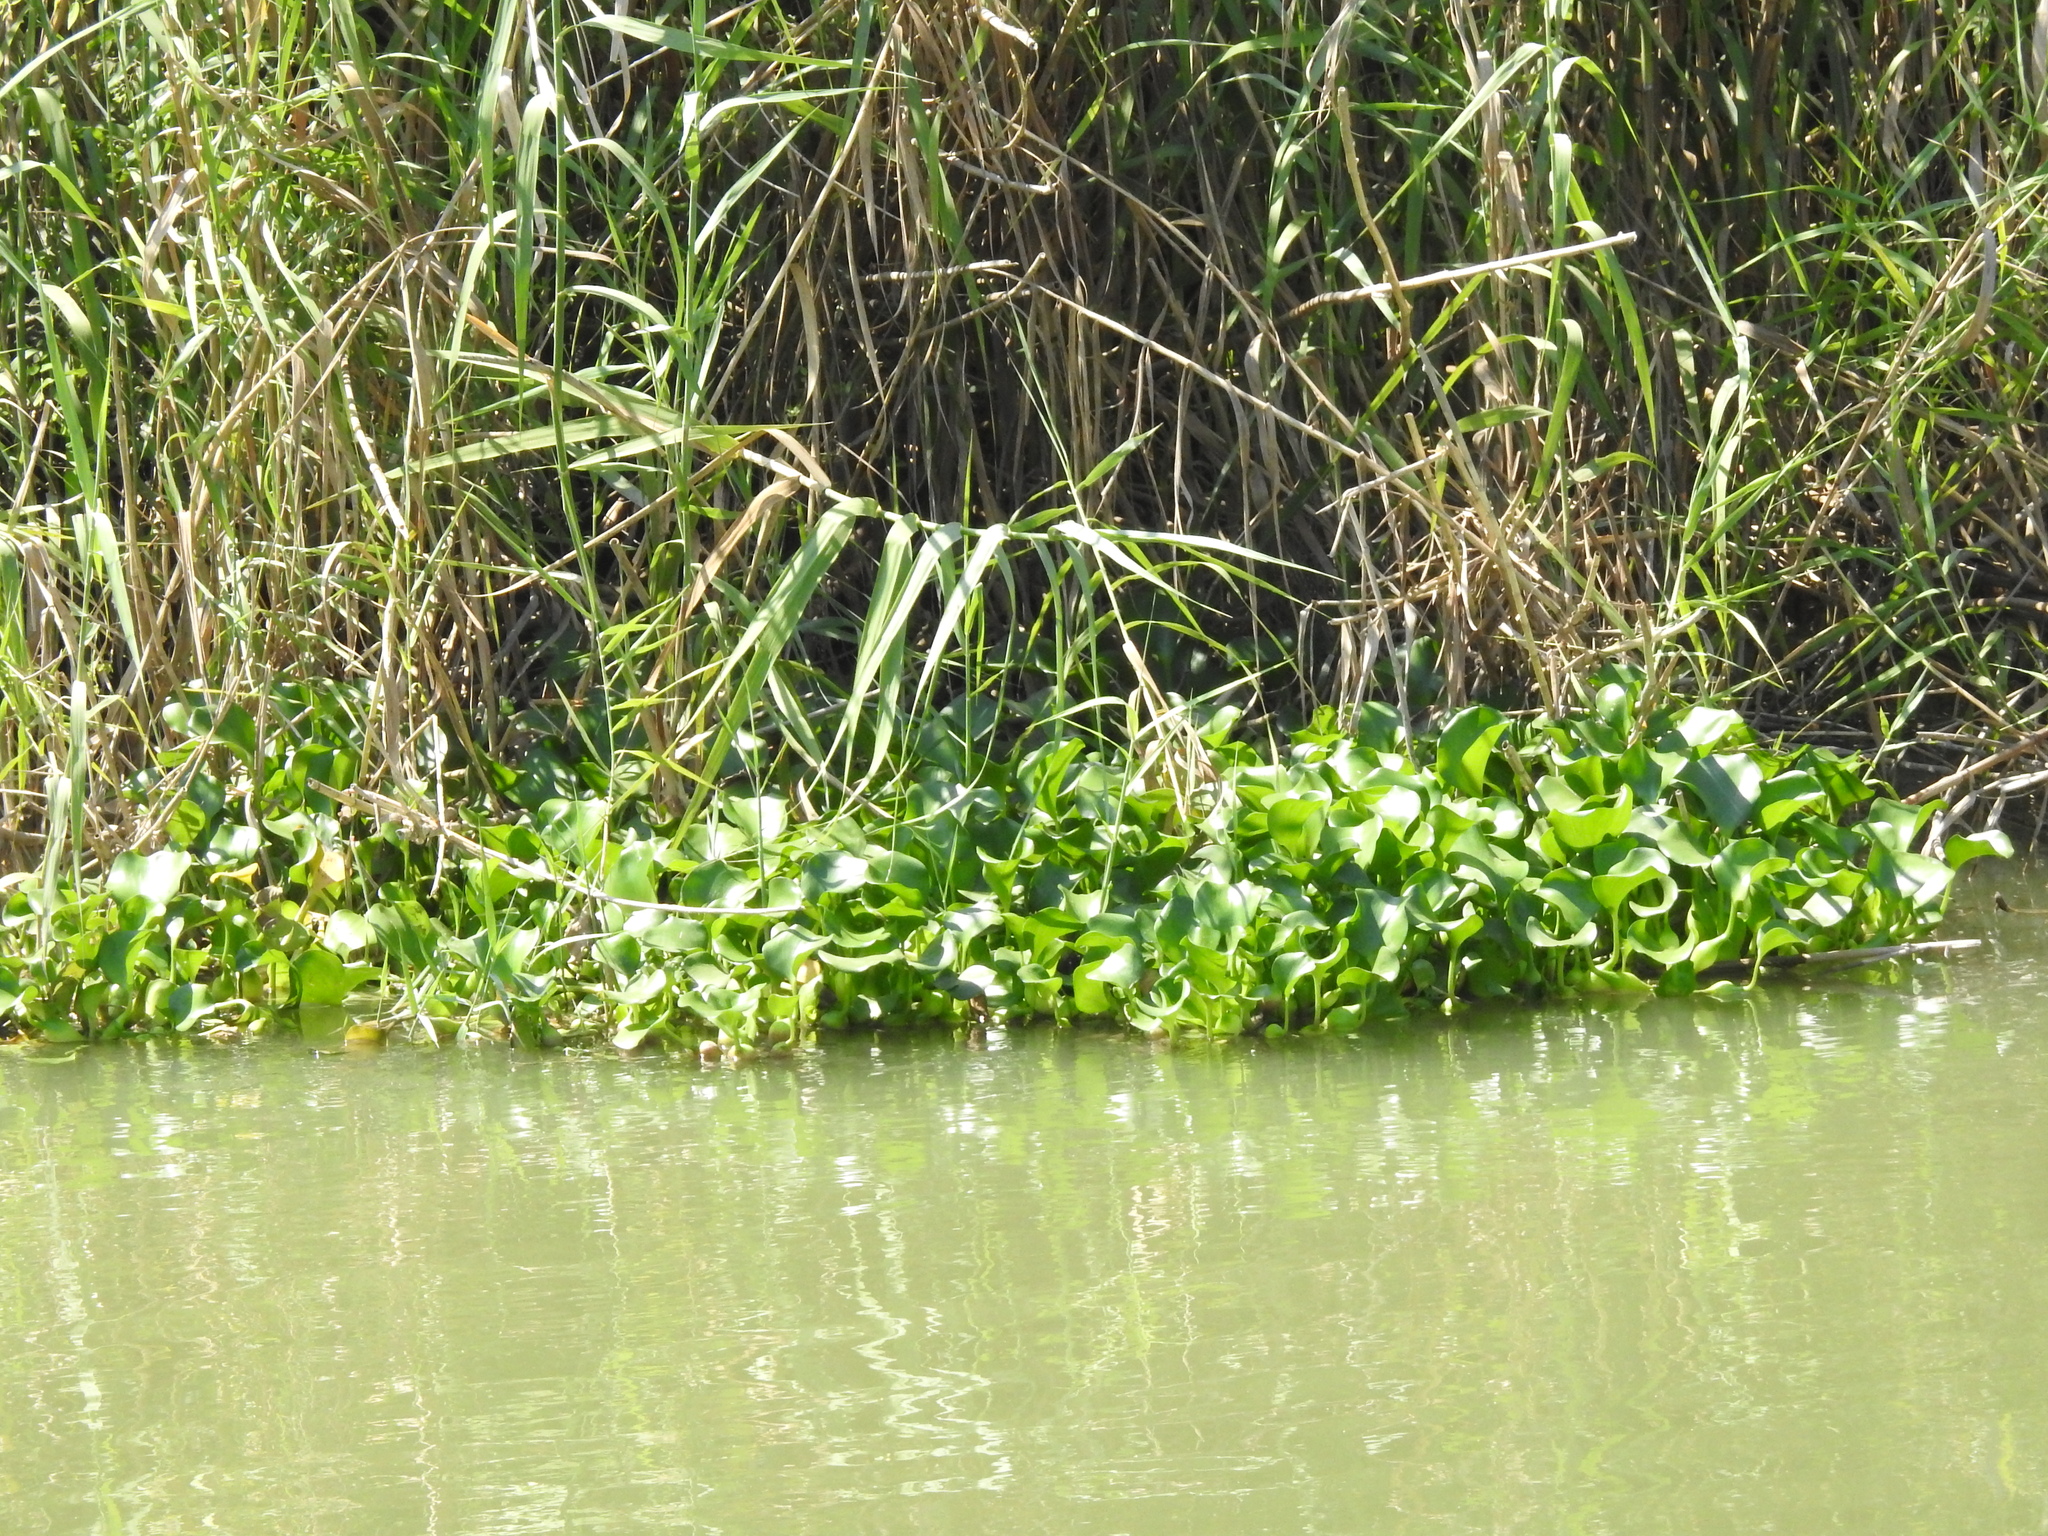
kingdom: Plantae
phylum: Tracheophyta
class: Liliopsida
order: Commelinales
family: Pontederiaceae
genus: Pontederia
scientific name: Pontederia crassipes
